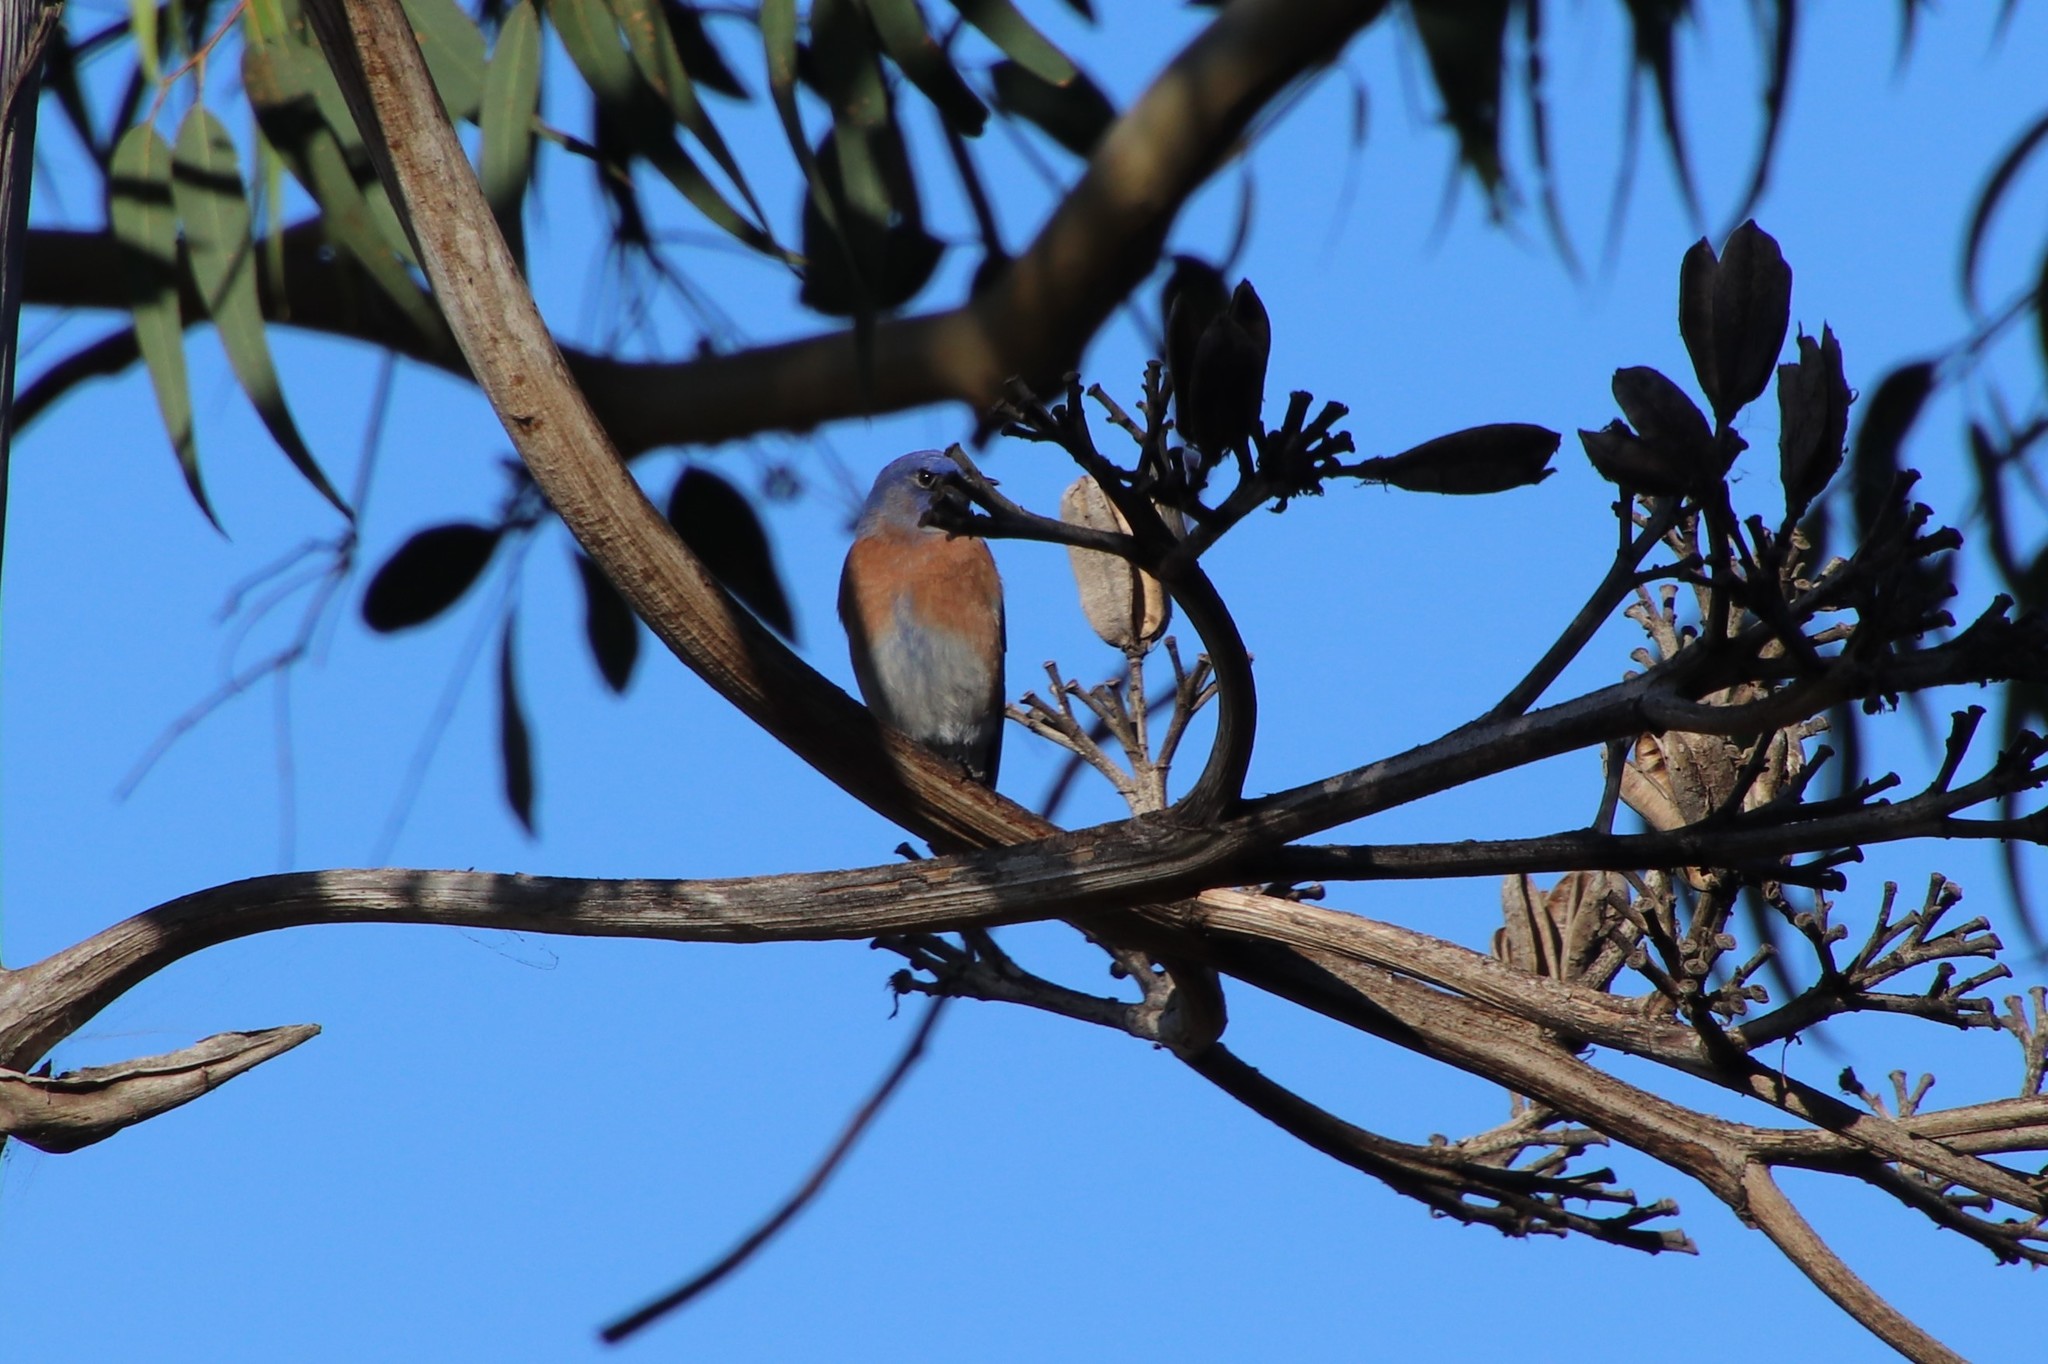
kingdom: Animalia
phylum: Chordata
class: Aves
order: Passeriformes
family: Turdidae
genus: Sialia
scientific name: Sialia mexicana
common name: Western bluebird
